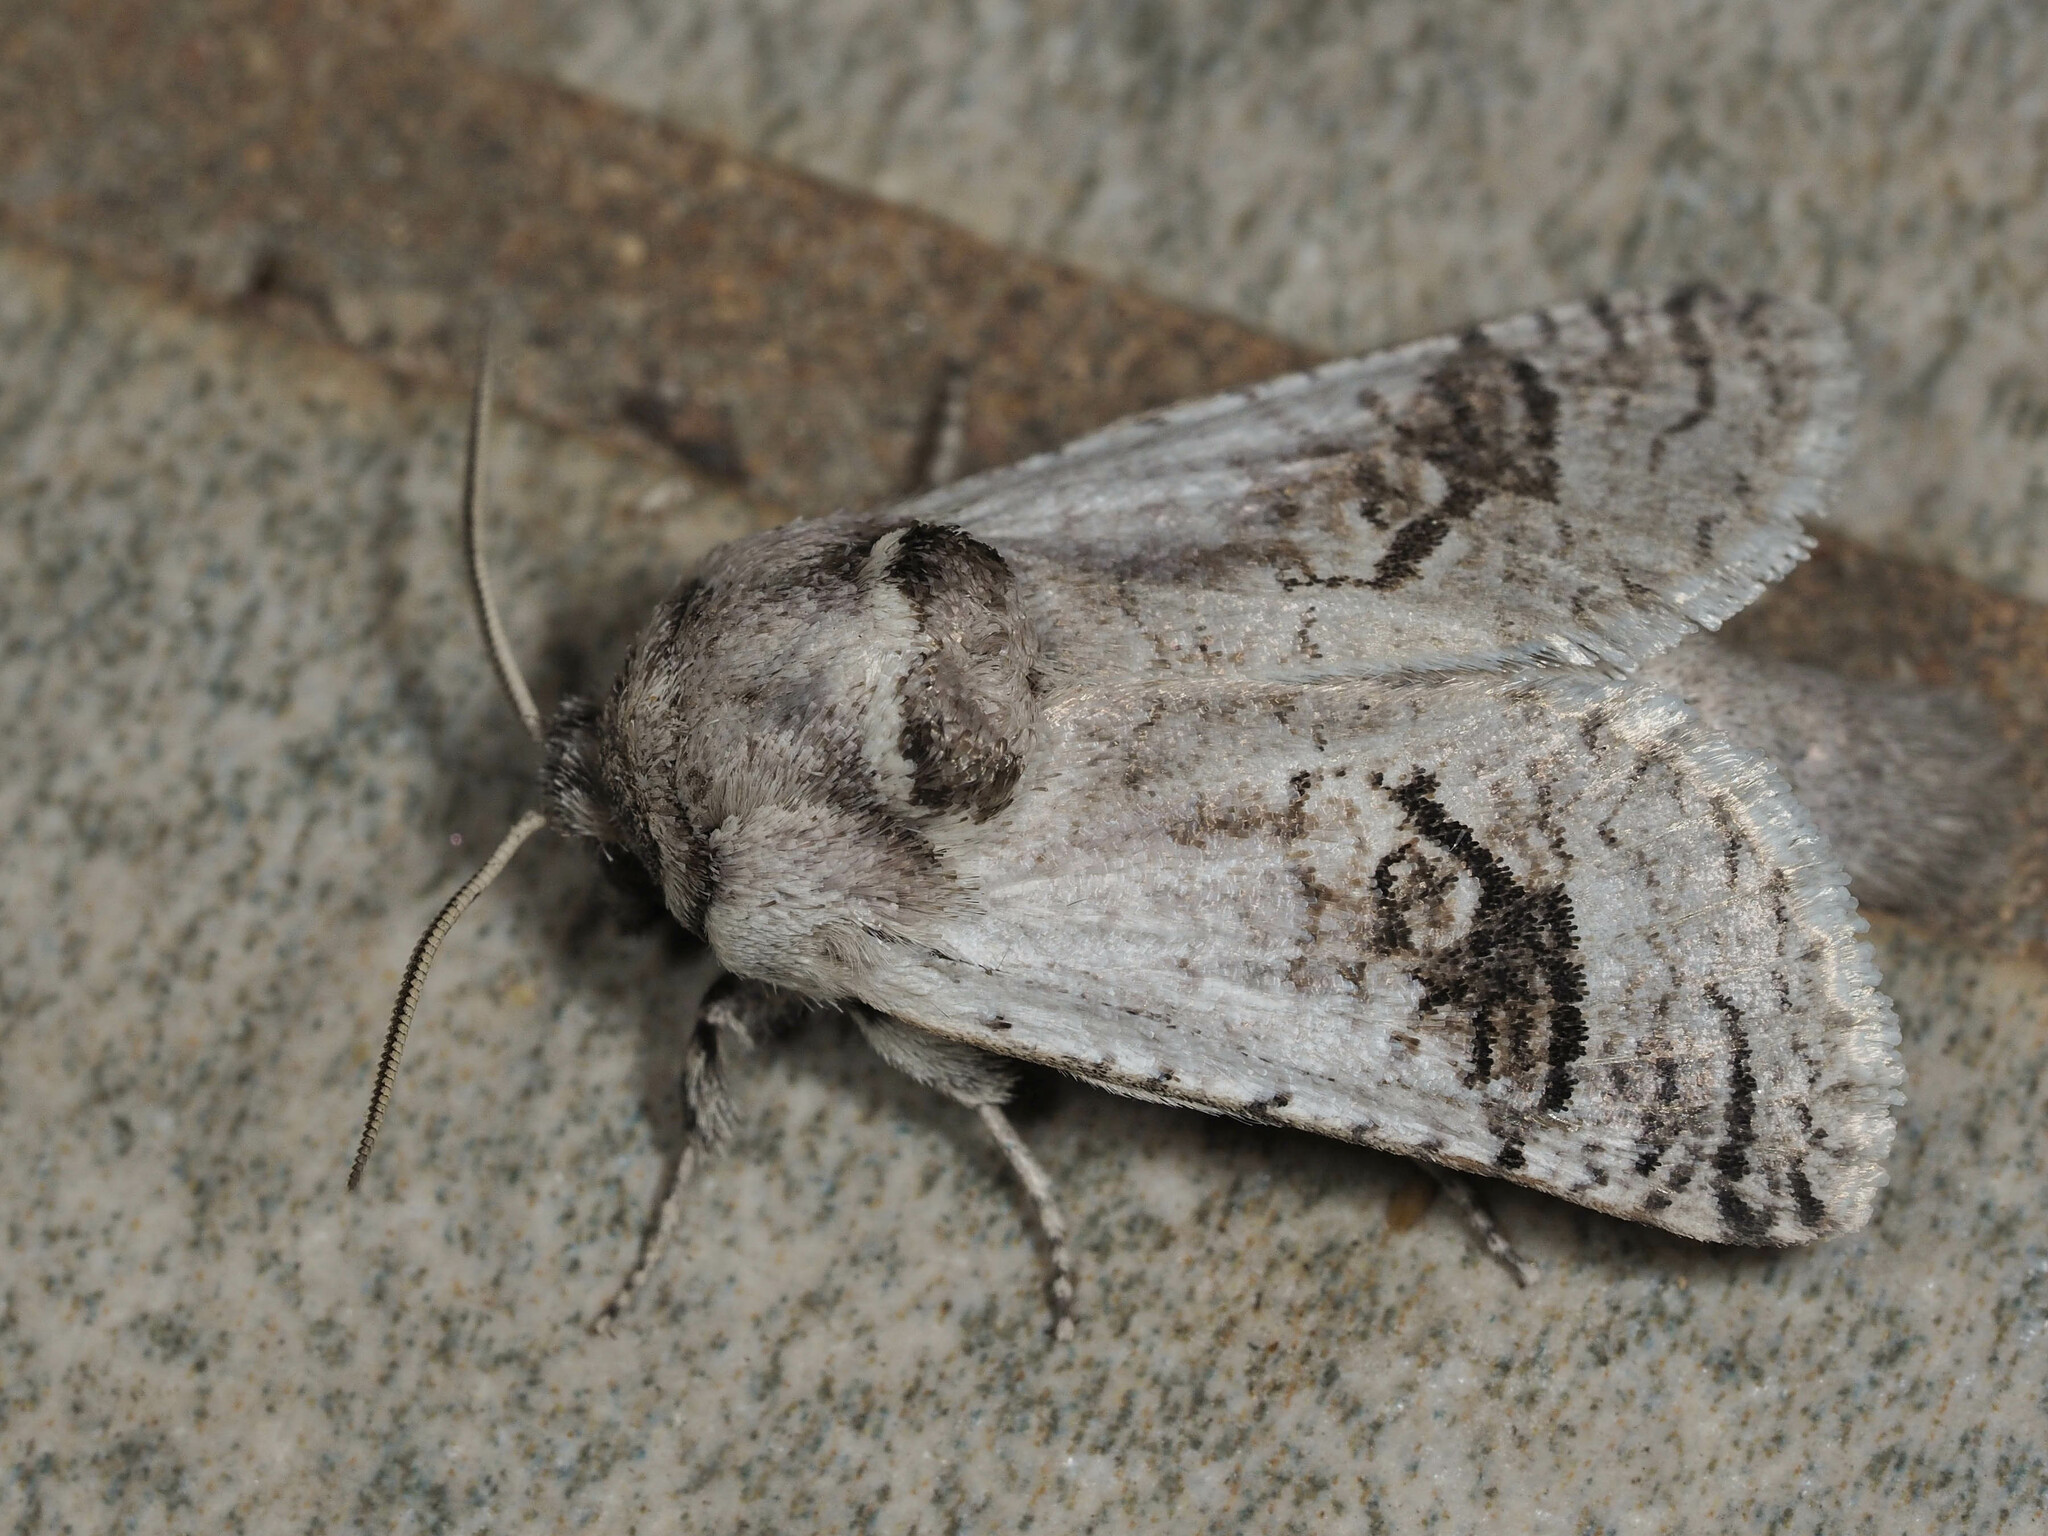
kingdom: Animalia
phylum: Arthropoda
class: Insecta
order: Lepidoptera
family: Cossidae
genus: Parahypopta
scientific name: Parahypopta caestrum
